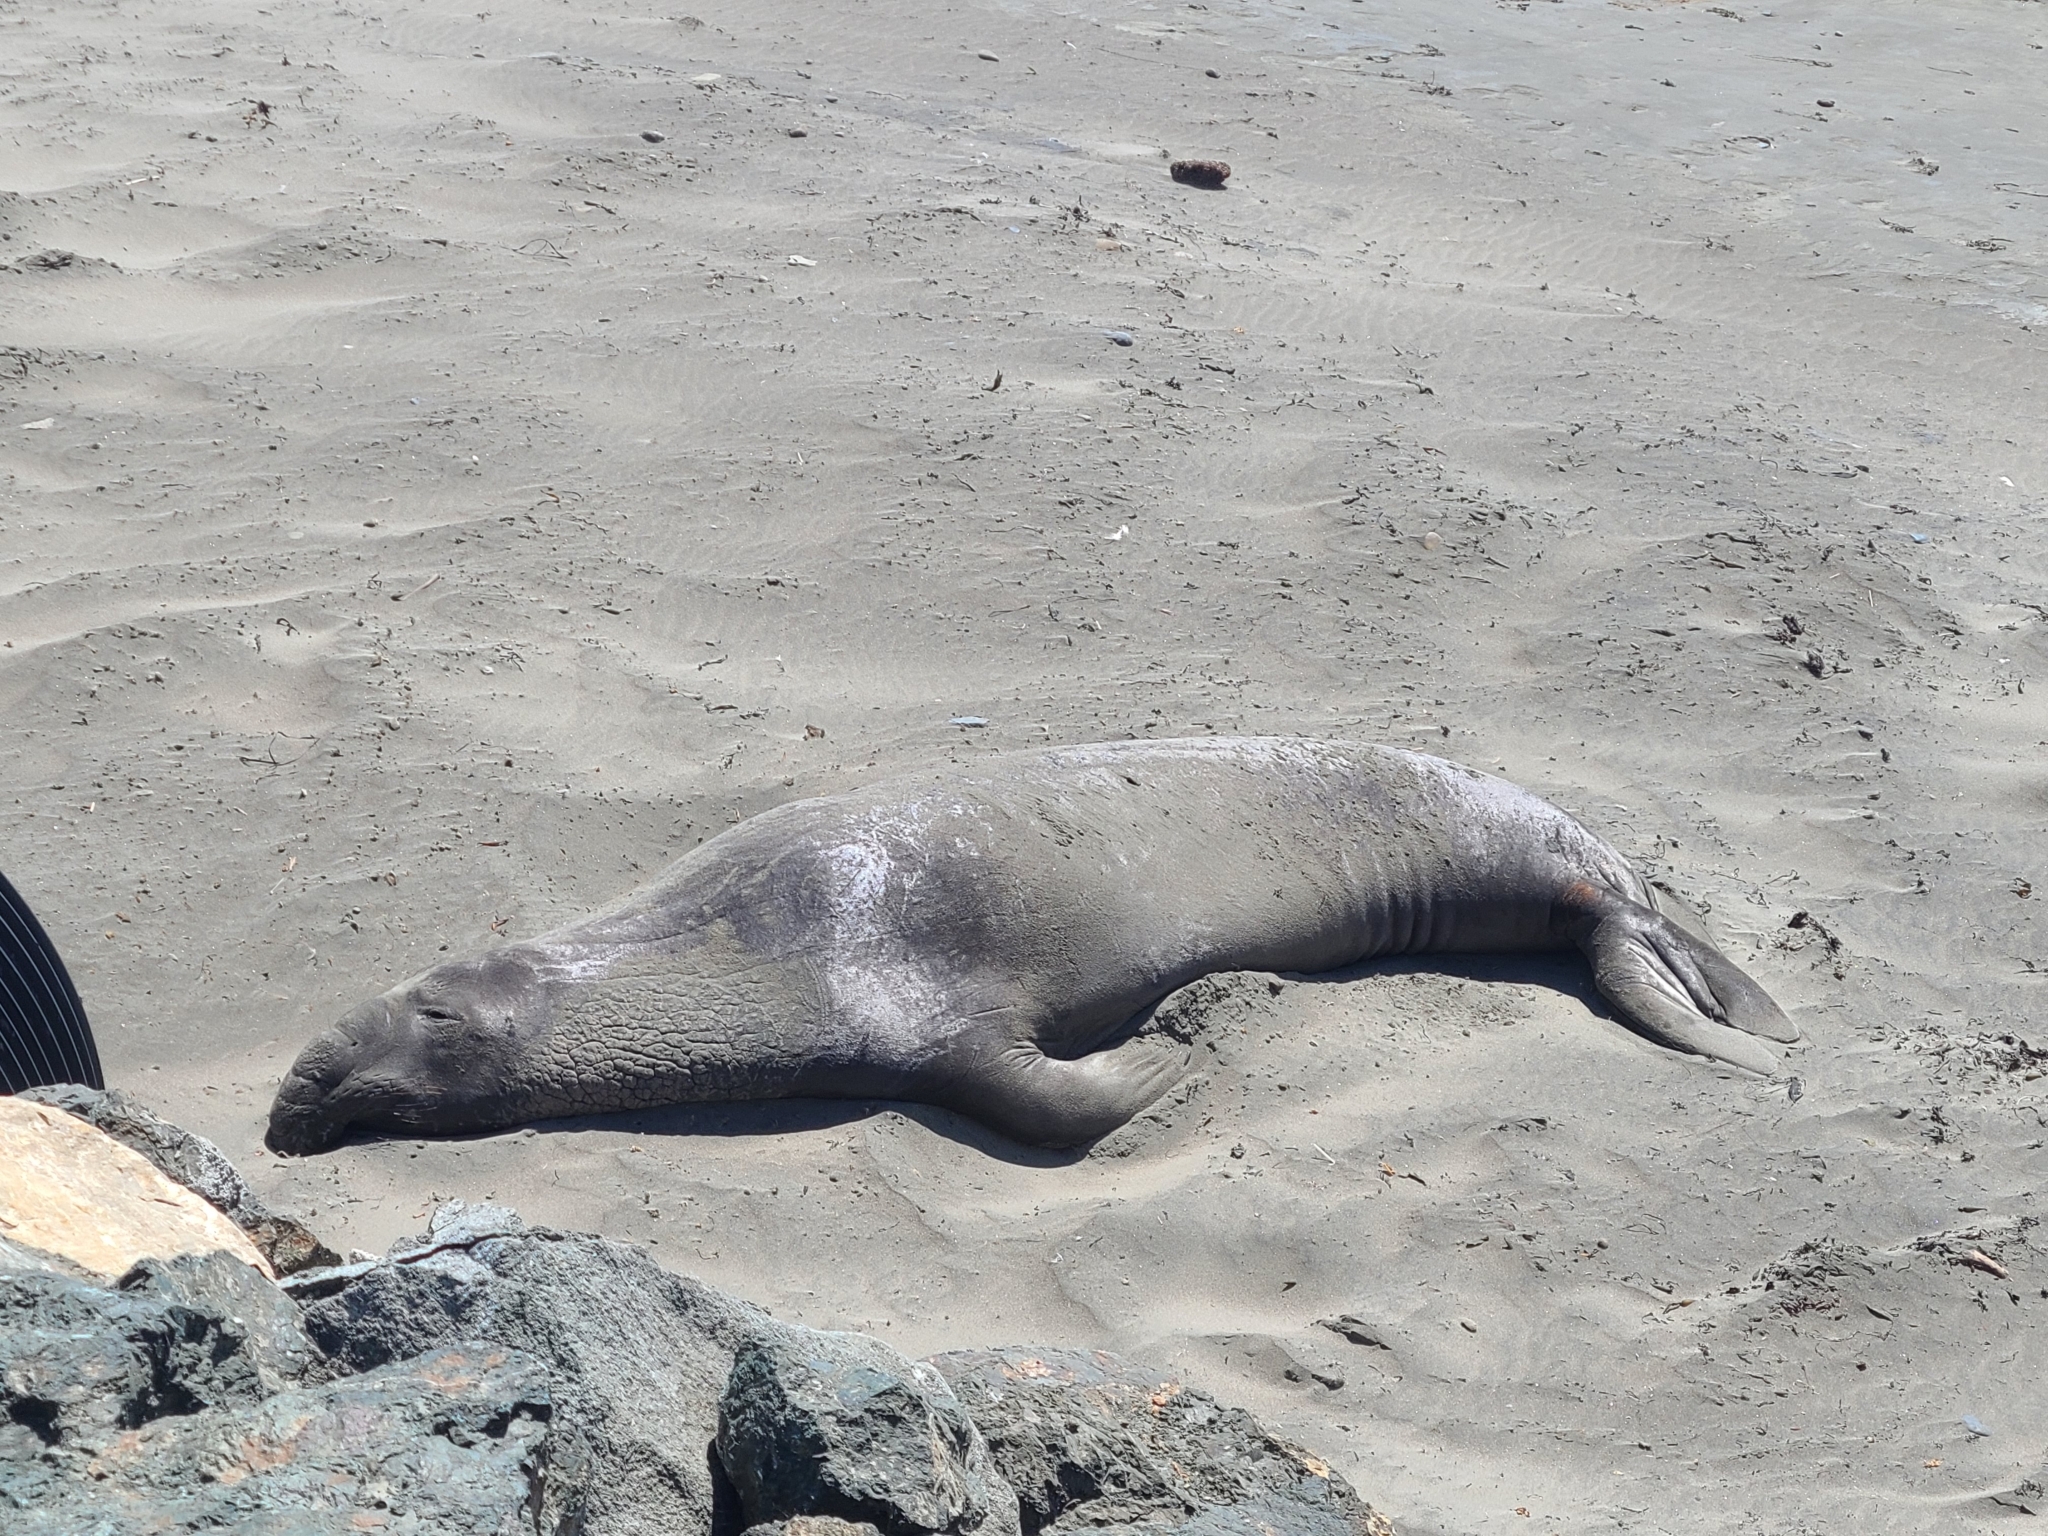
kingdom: Animalia
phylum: Chordata
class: Mammalia
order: Carnivora
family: Phocidae
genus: Mirounga
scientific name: Mirounga angustirostris
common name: Northern elephant seal
